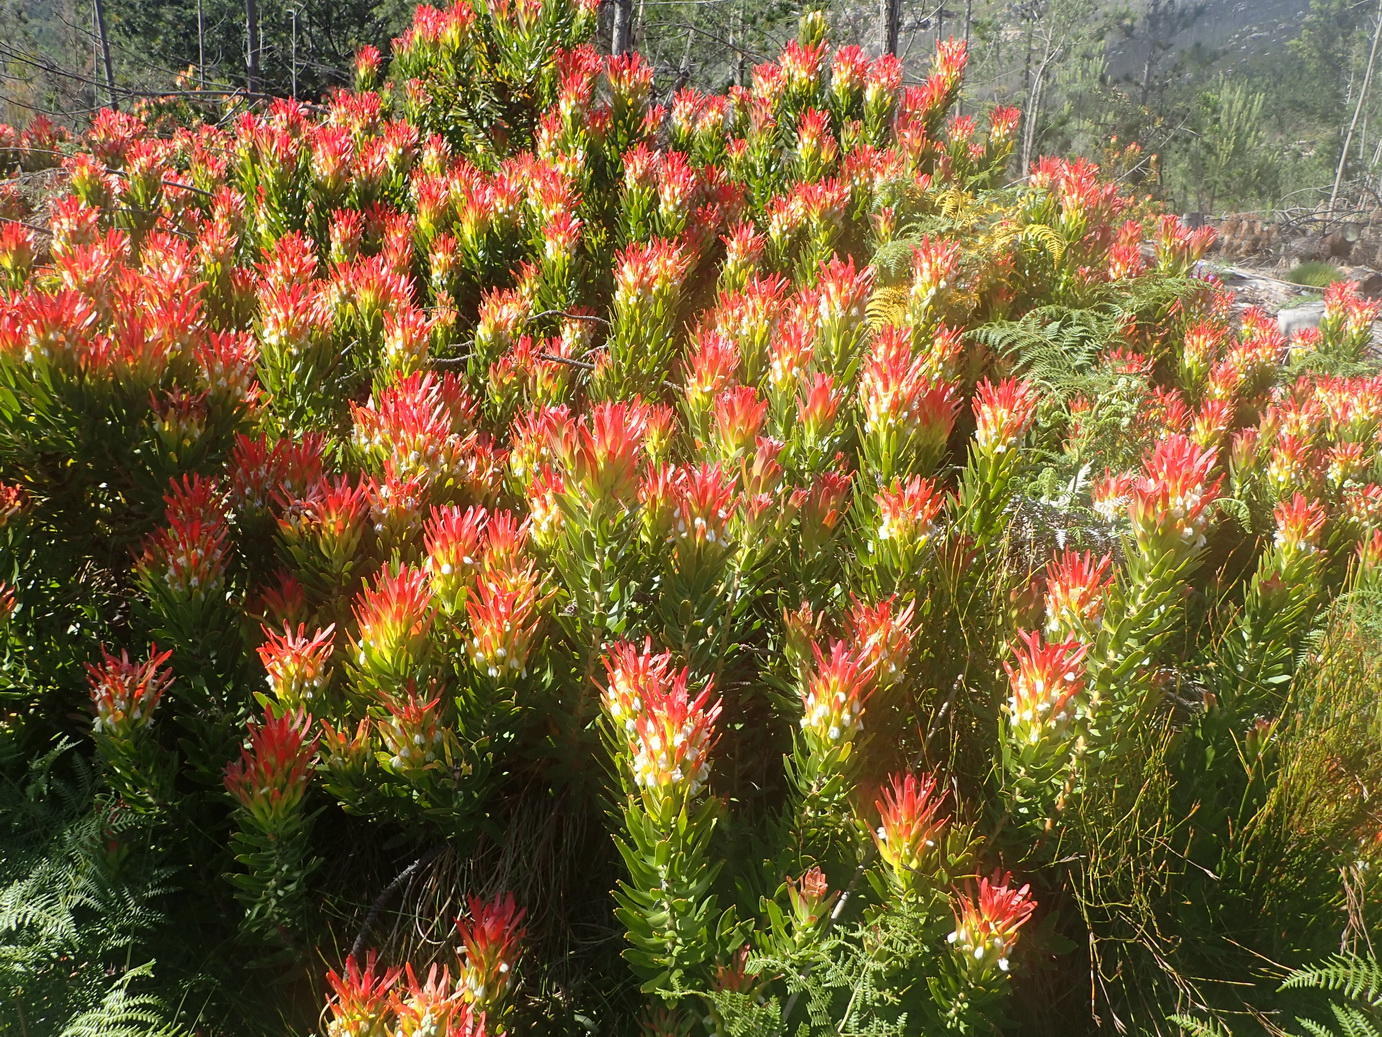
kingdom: Plantae
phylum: Tracheophyta
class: Magnoliopsida
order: Proteales
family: Proteaceae
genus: Mimetes
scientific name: Mimetes cucullatus
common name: Common pagoda
